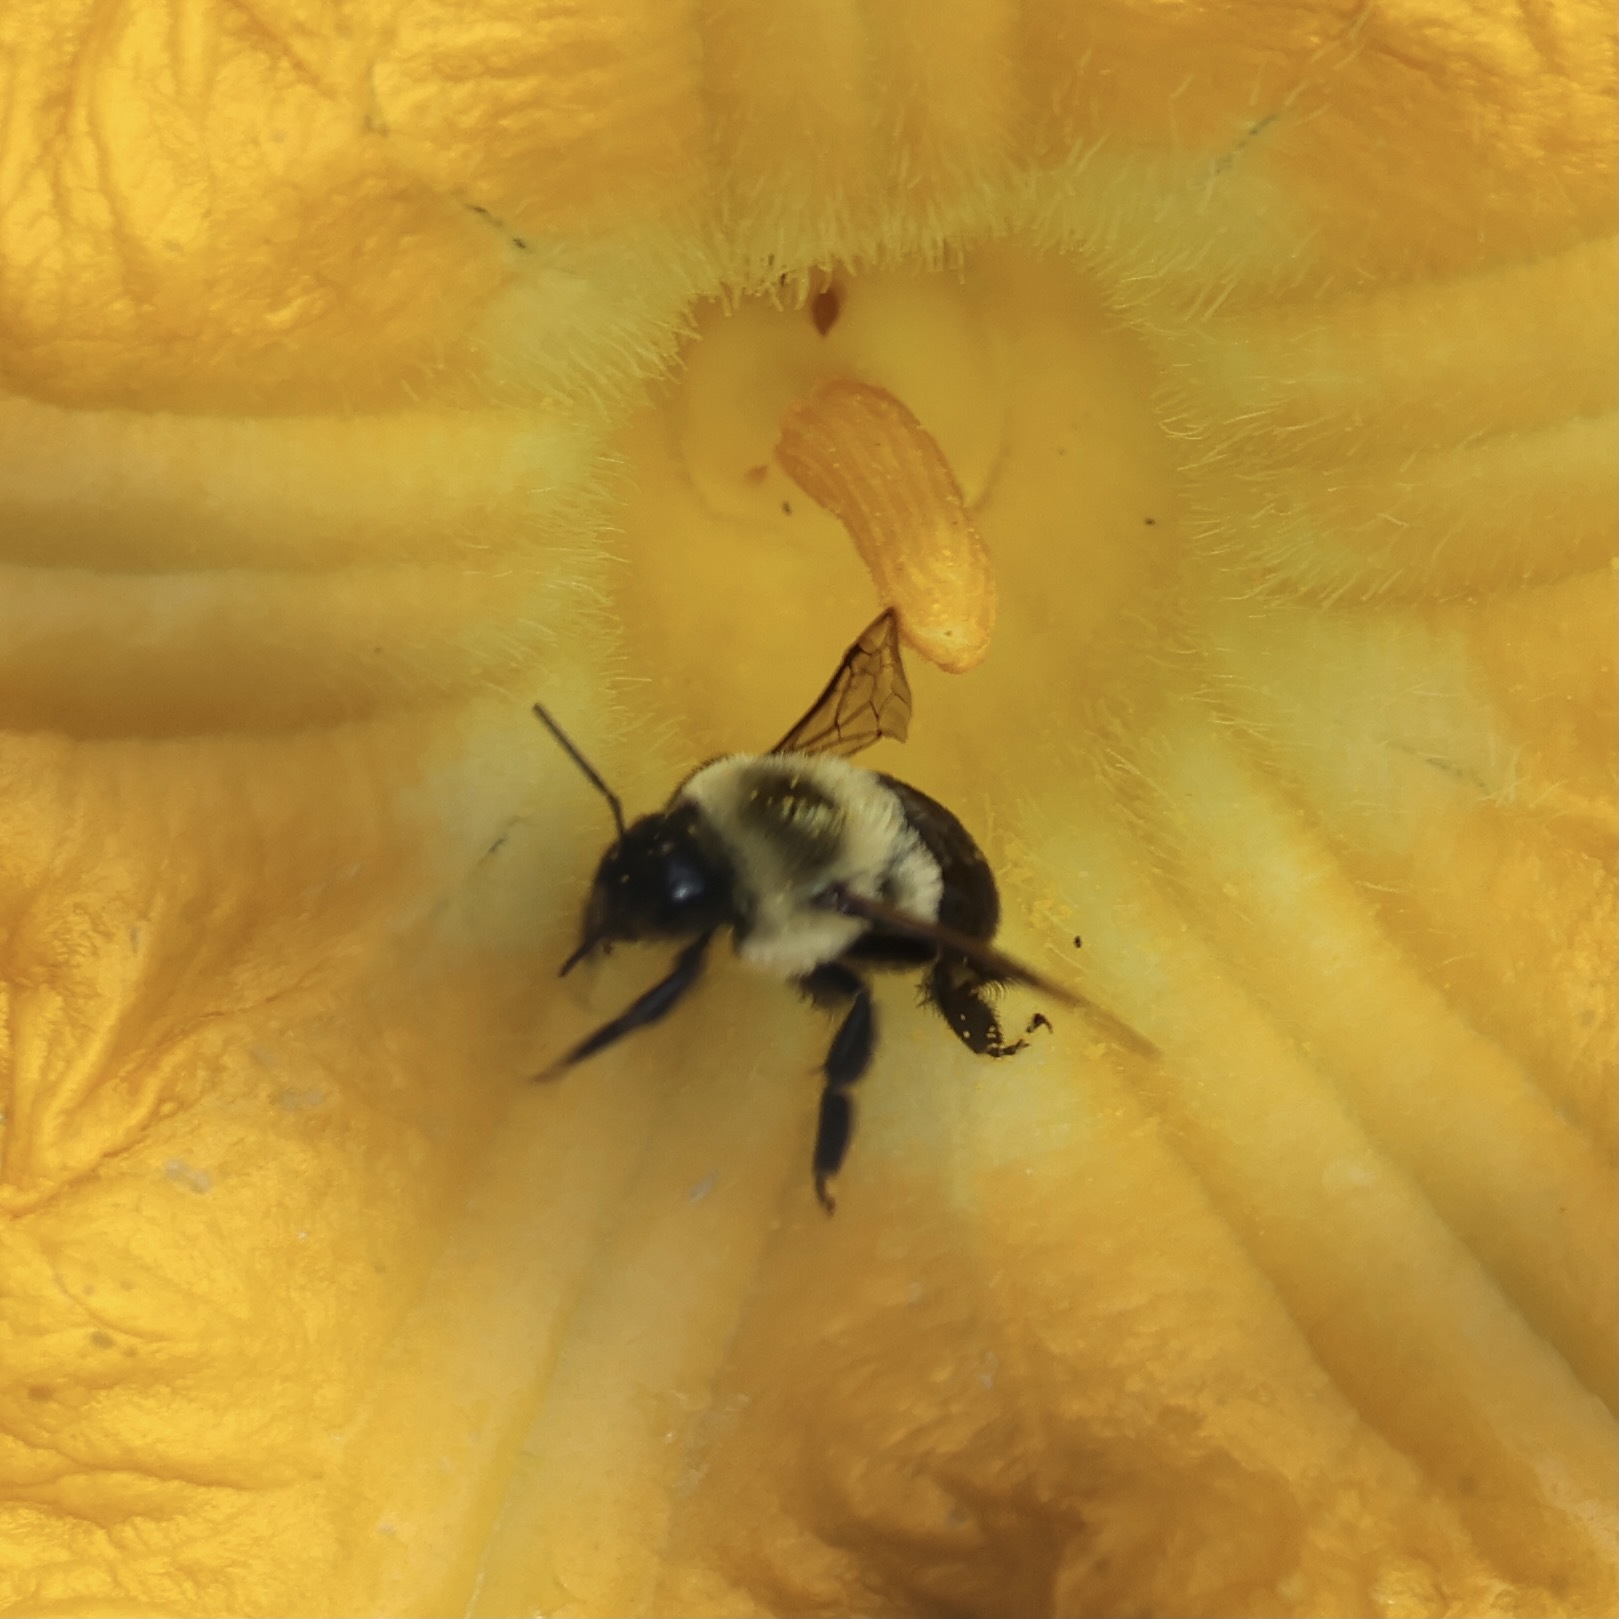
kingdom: Animalia
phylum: Arthropoda
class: Insecta
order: Hymenoptera
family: Apidae
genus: Bombus
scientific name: Bombus impatiens
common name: Common eastern bumble bee
